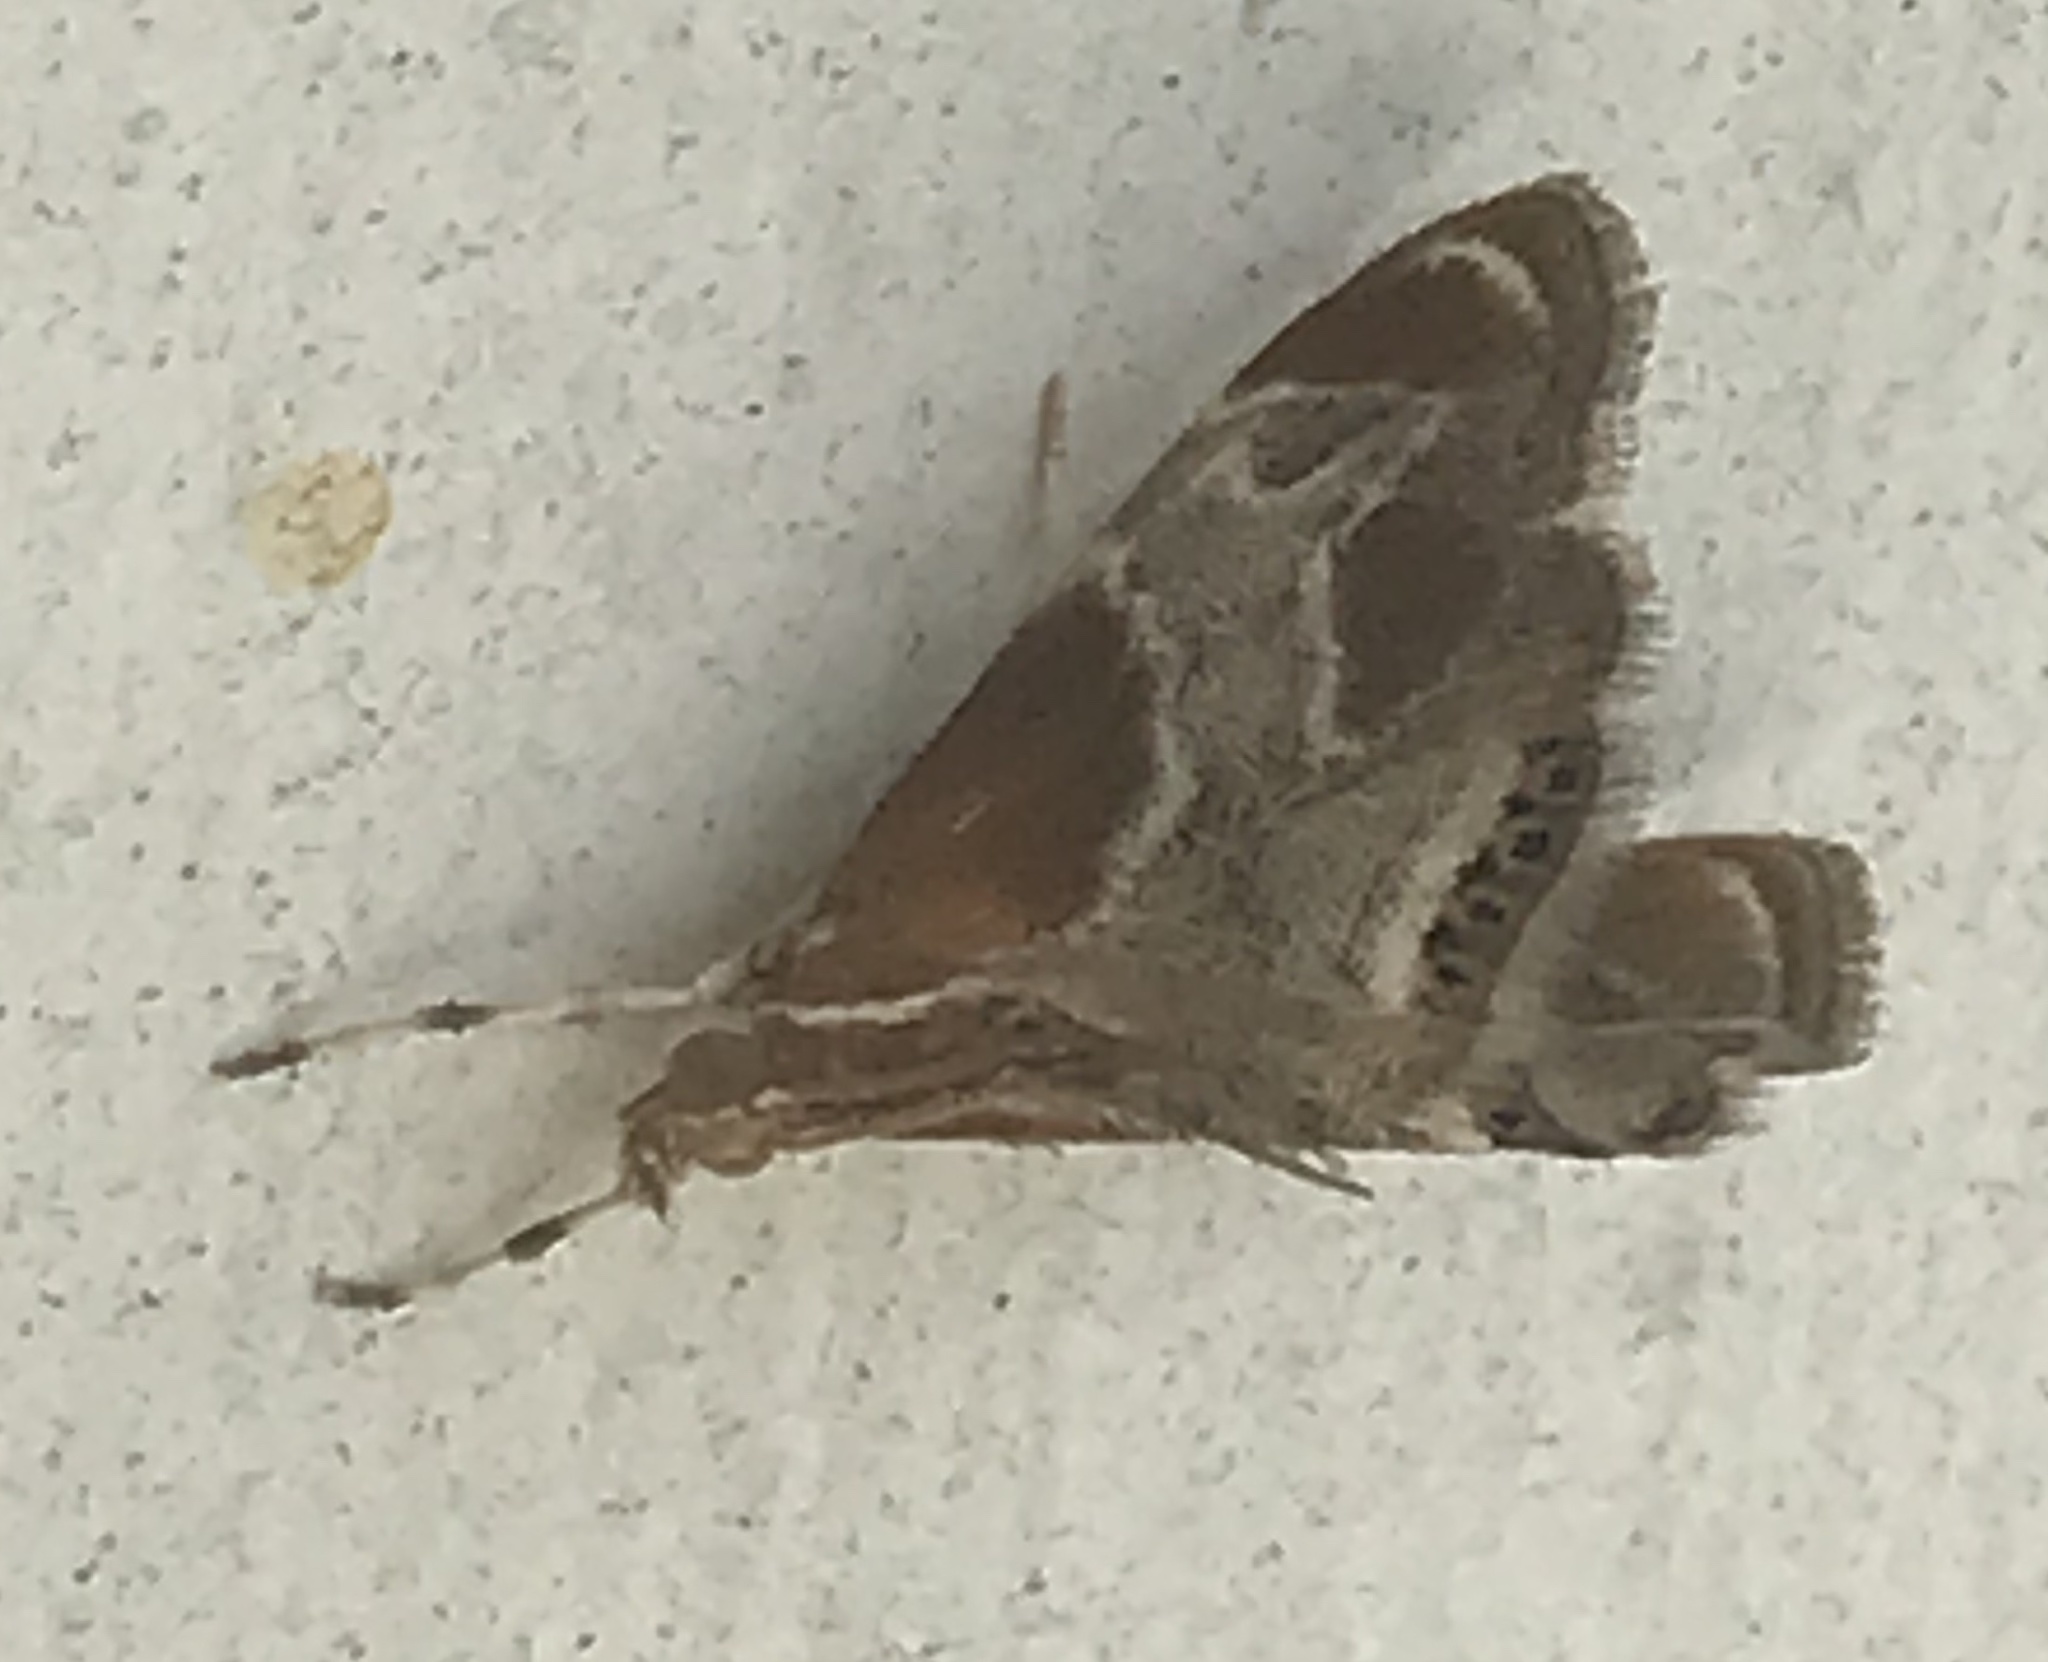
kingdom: Animalia
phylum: Arthropoda
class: Insecta
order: Lepidoptera
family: Crambidae
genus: Chalcoela
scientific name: Chalcoela pegasalis
